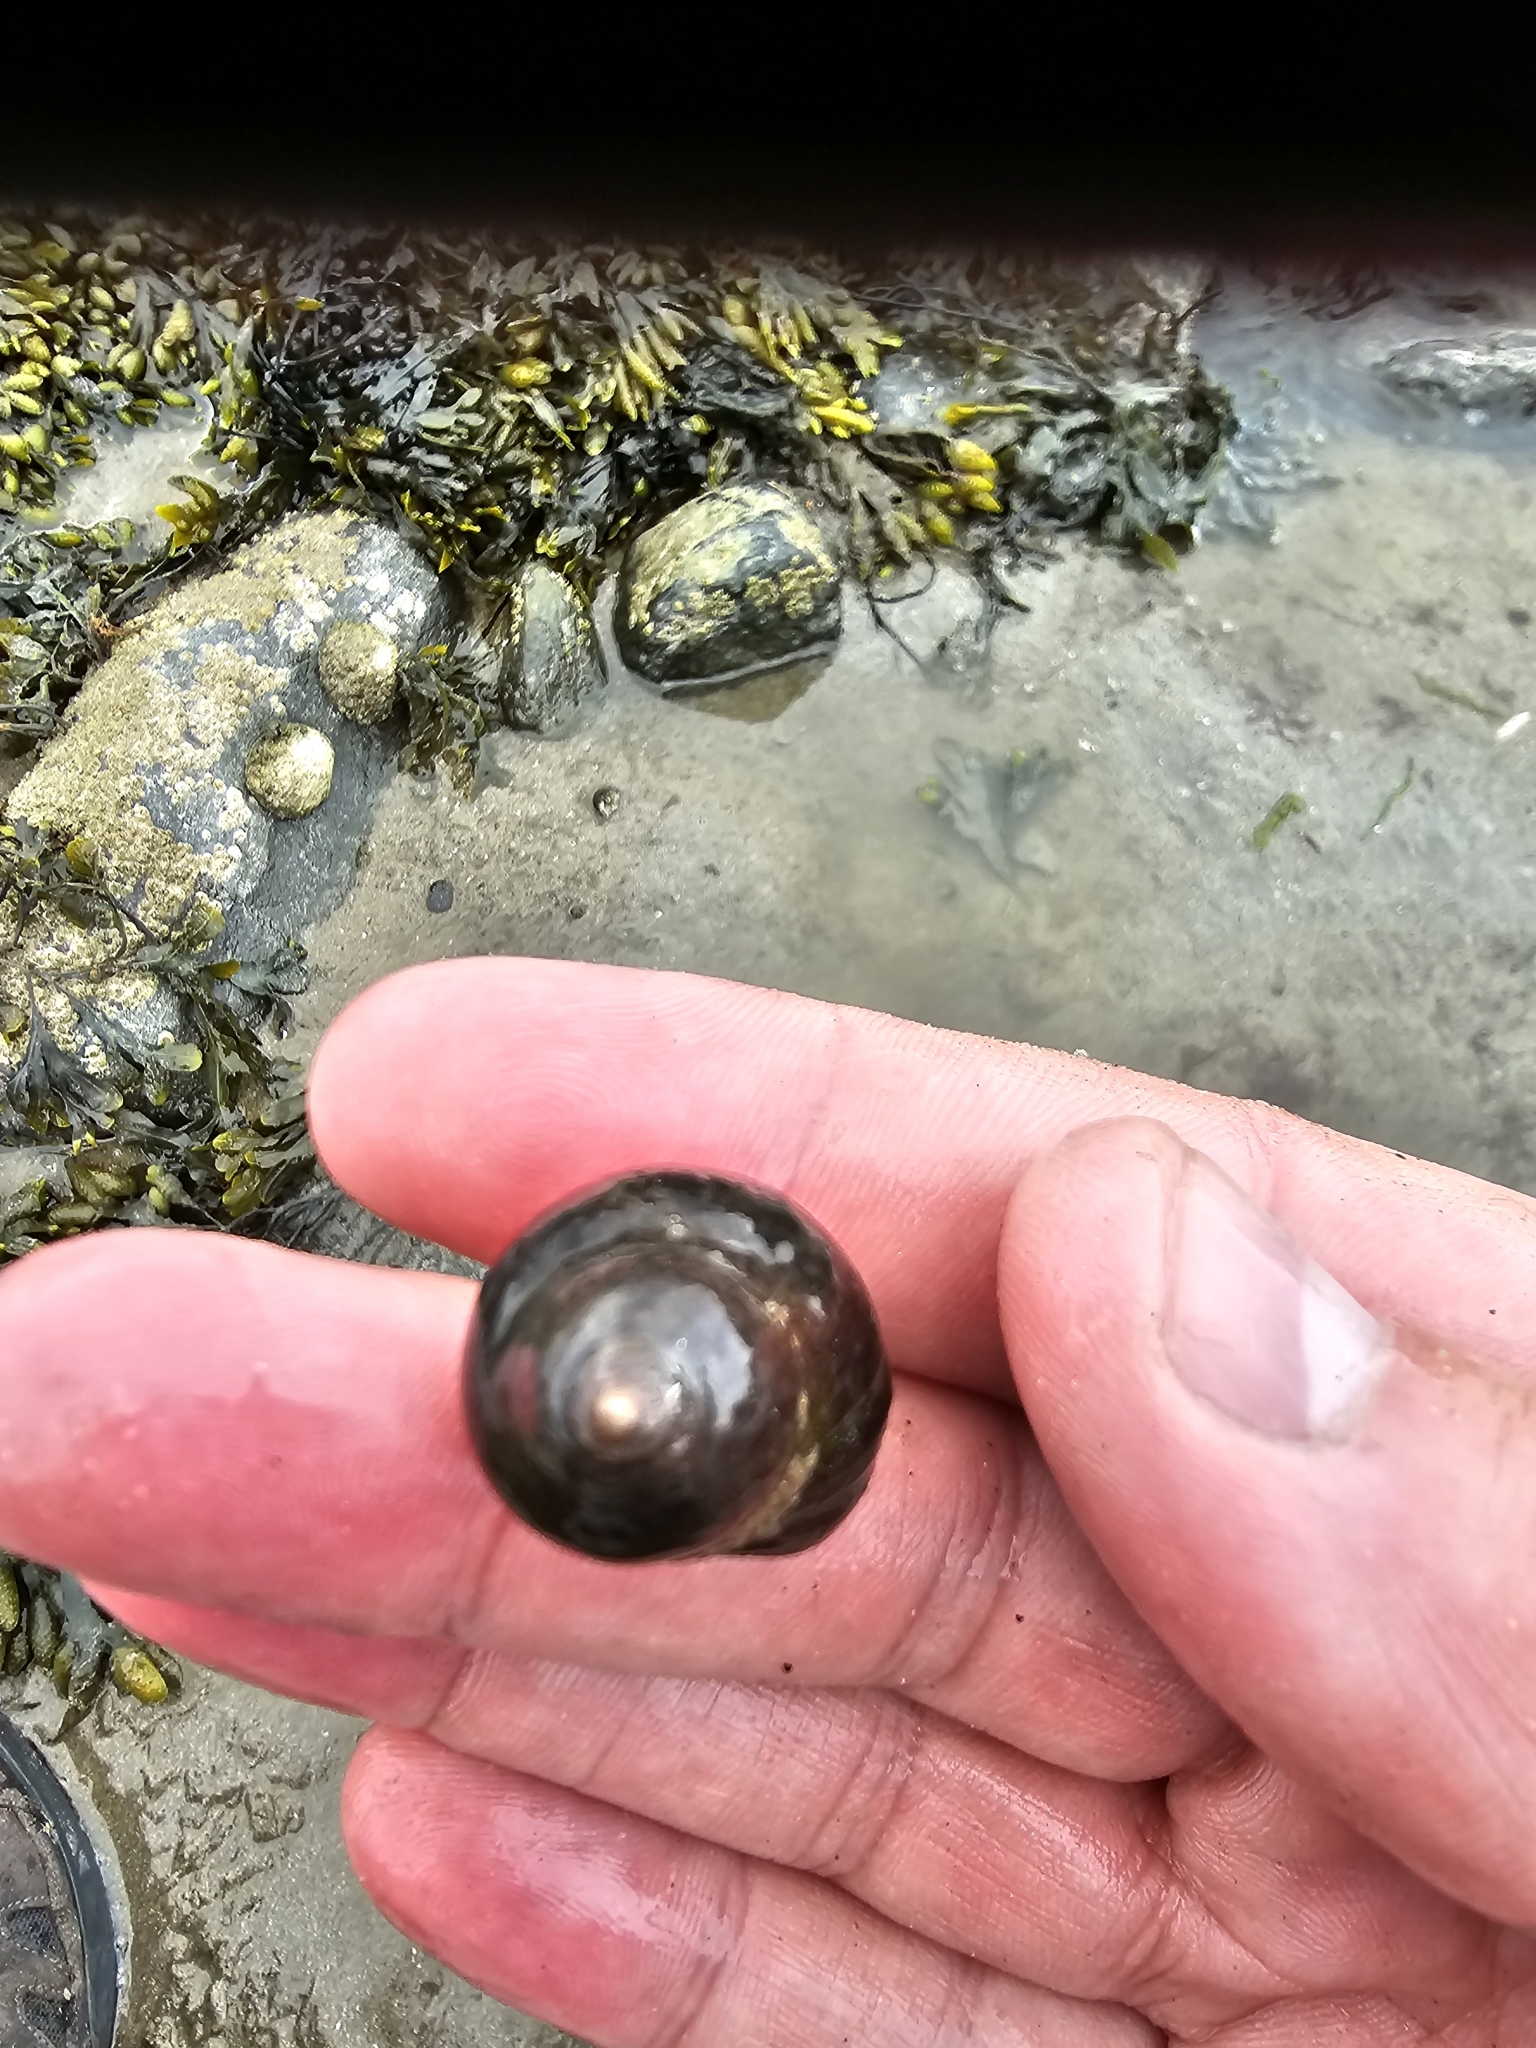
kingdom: Animalia
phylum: Mollusca
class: Gastropoda
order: Littorinimorpha
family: Littorinidae
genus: Littorina
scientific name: Littorina
